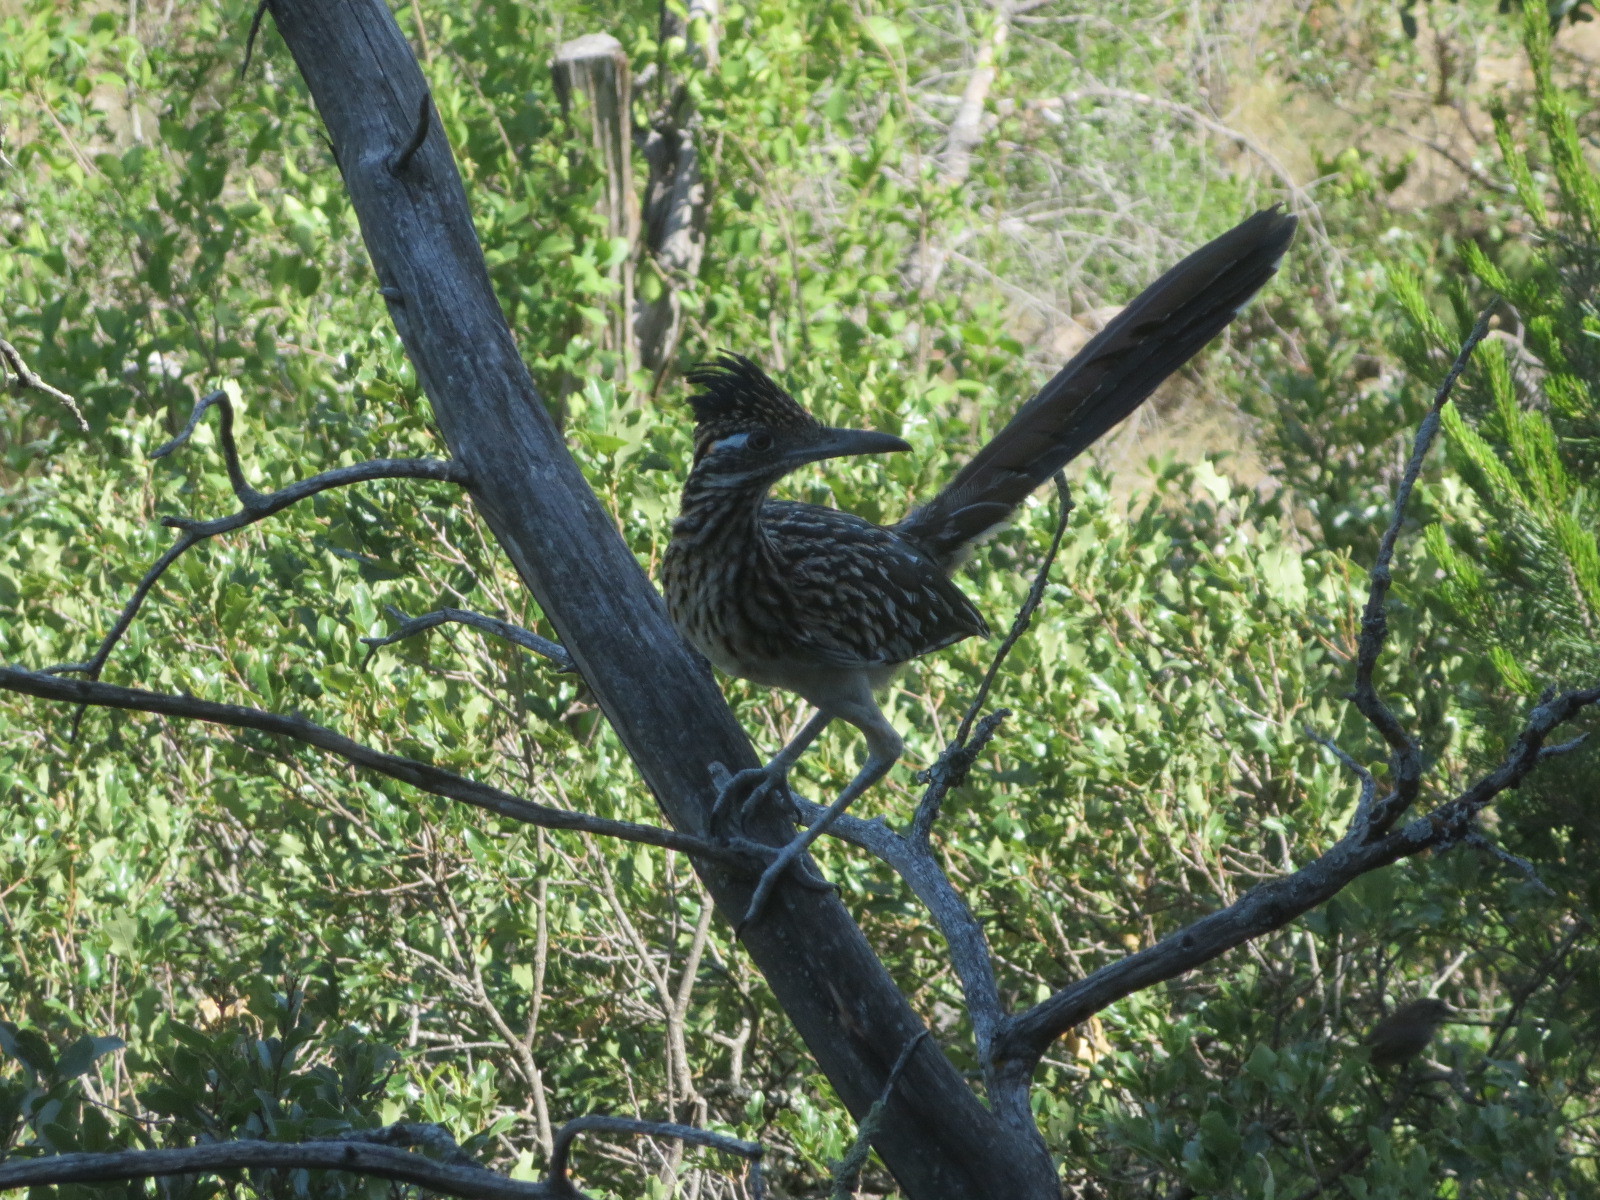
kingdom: Animalia
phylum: Chordata
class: Aves
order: Cuculiformes
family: Cuculidae
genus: Geococcyx
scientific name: Geococcyx californianus
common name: Greater roadrunner
